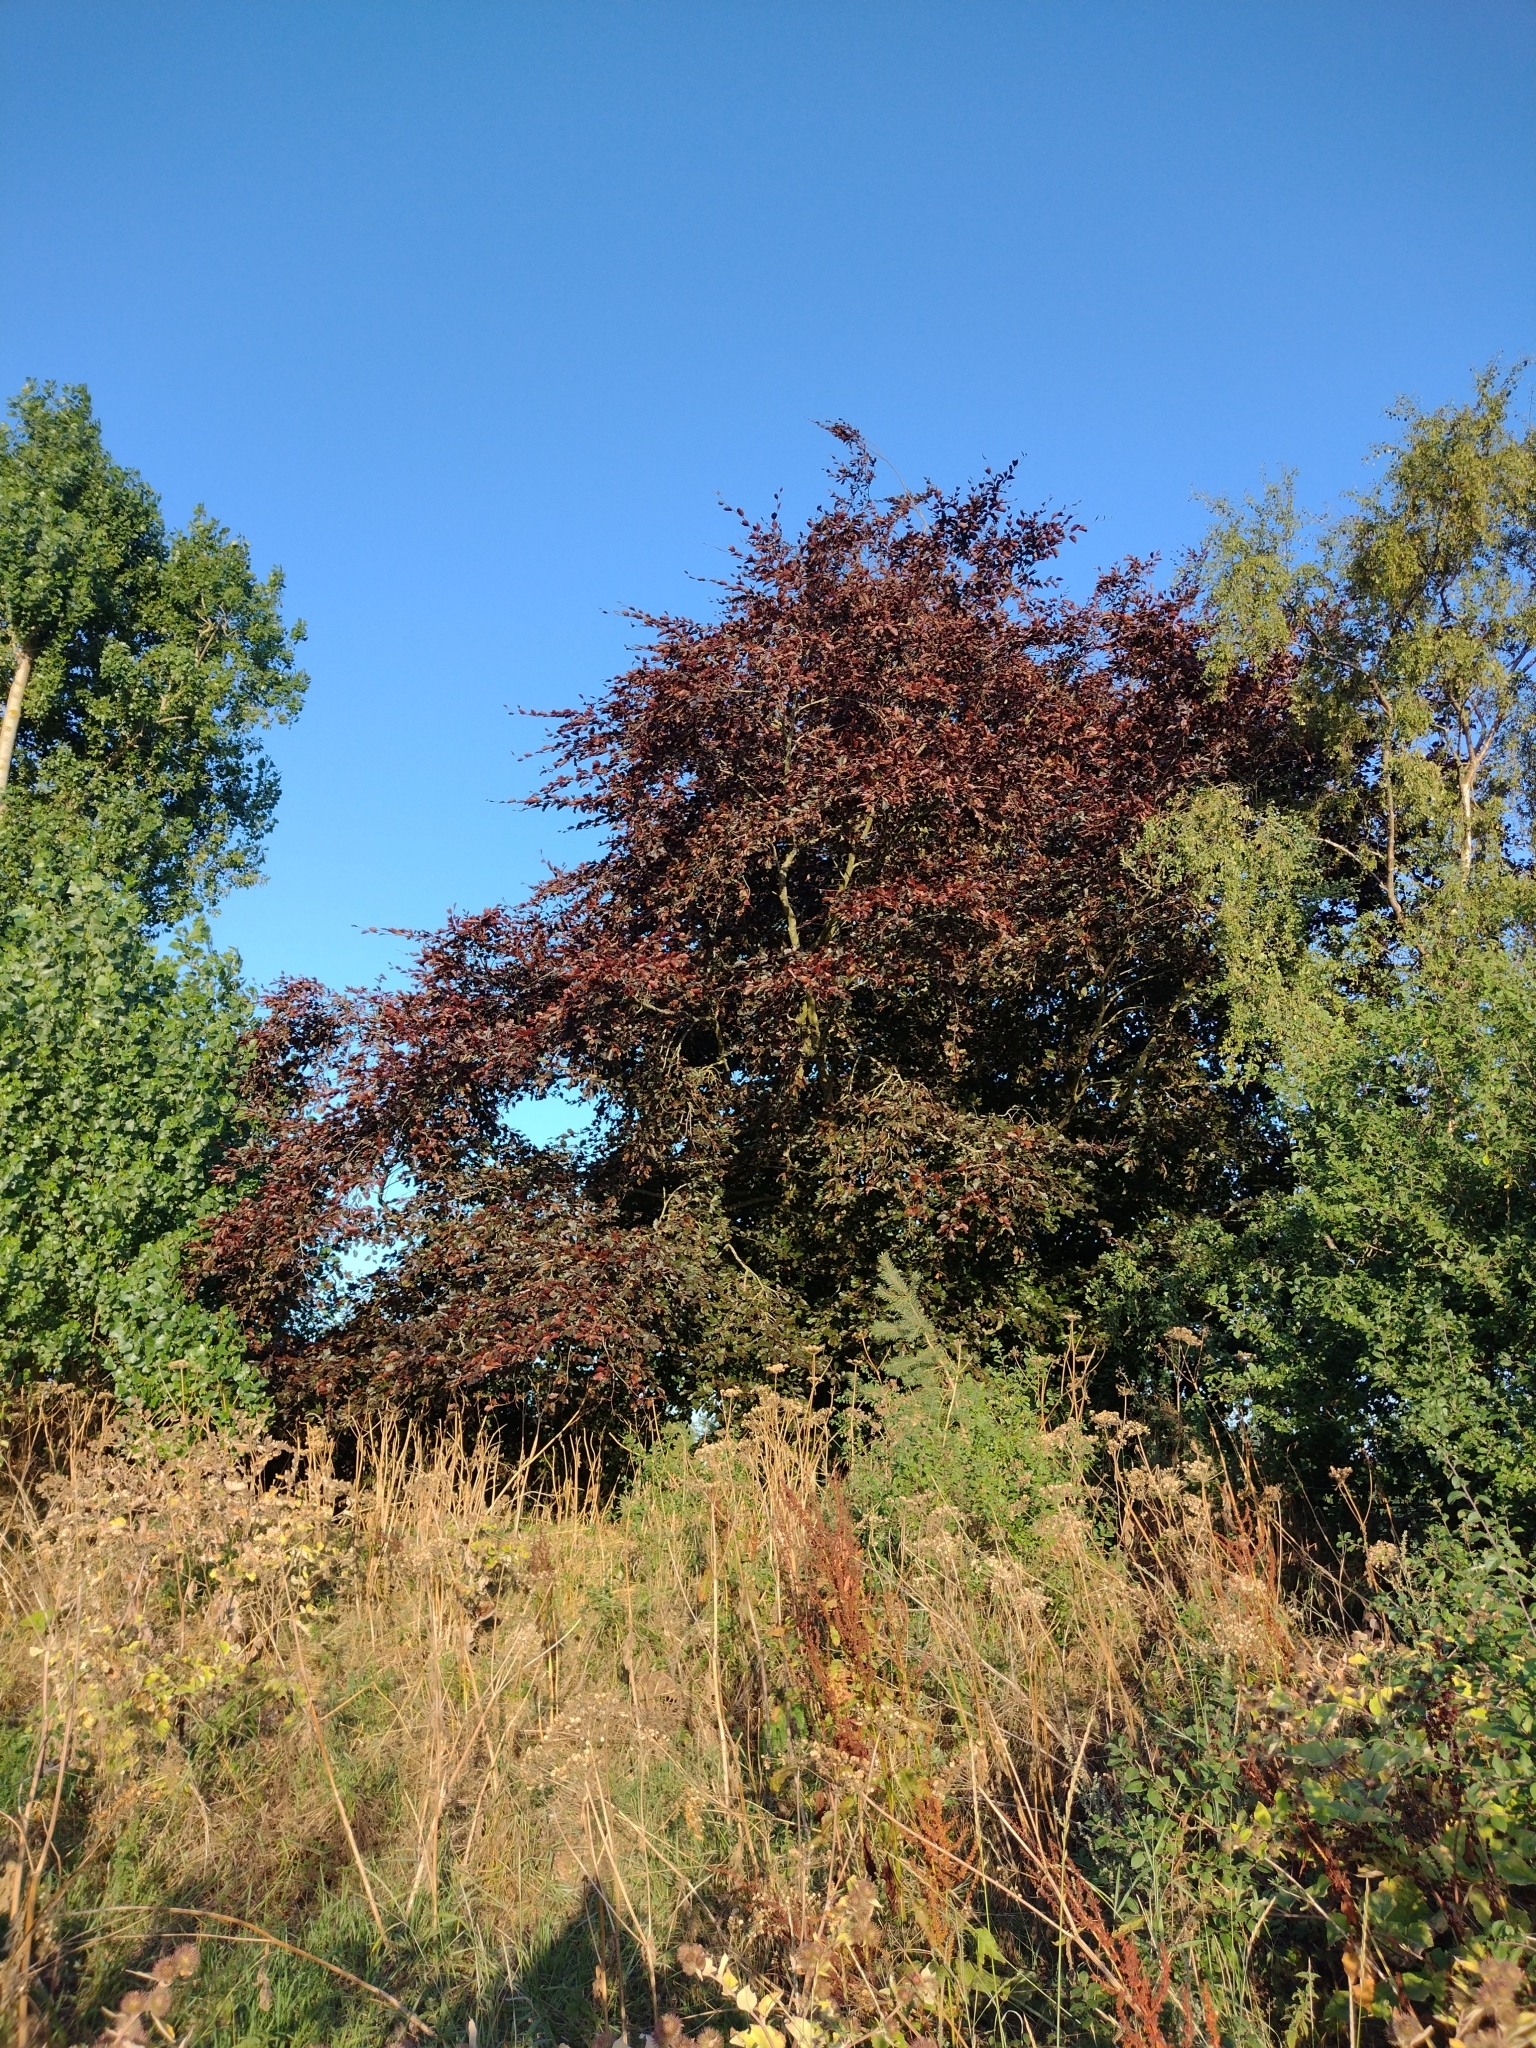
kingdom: Plantae
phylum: Tracheophyta
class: Magnoliopsida
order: Fagales
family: Fagaceae
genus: Fagus
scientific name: Fagus sylvatica
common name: Beech
